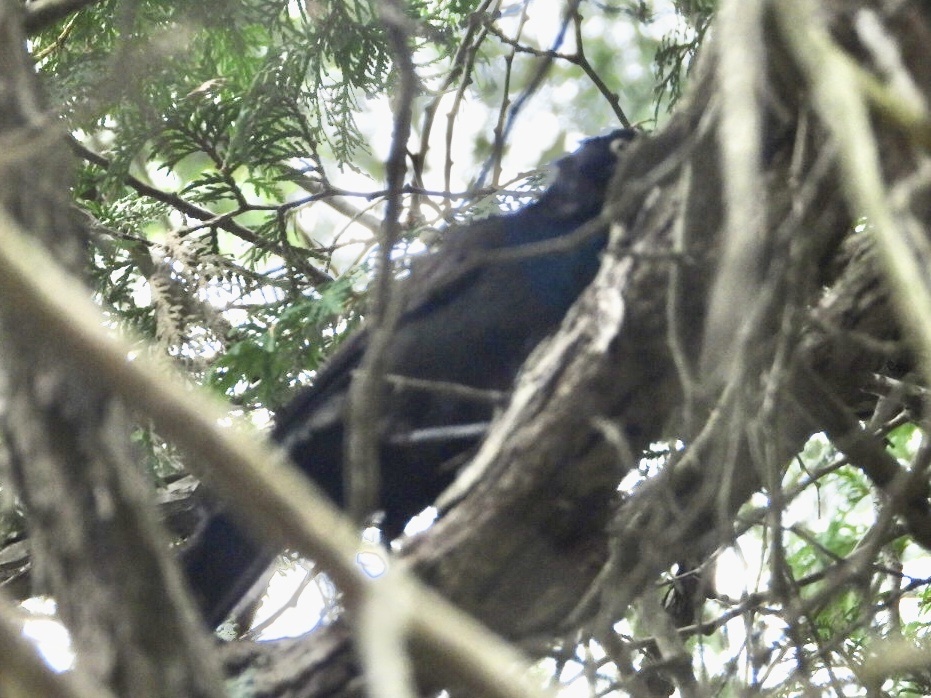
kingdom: Animalia
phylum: Chordata
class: Aves
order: Passeriformes
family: Icteridae
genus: Quiscalus
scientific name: Quiscalus quiscula
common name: Common grackle
